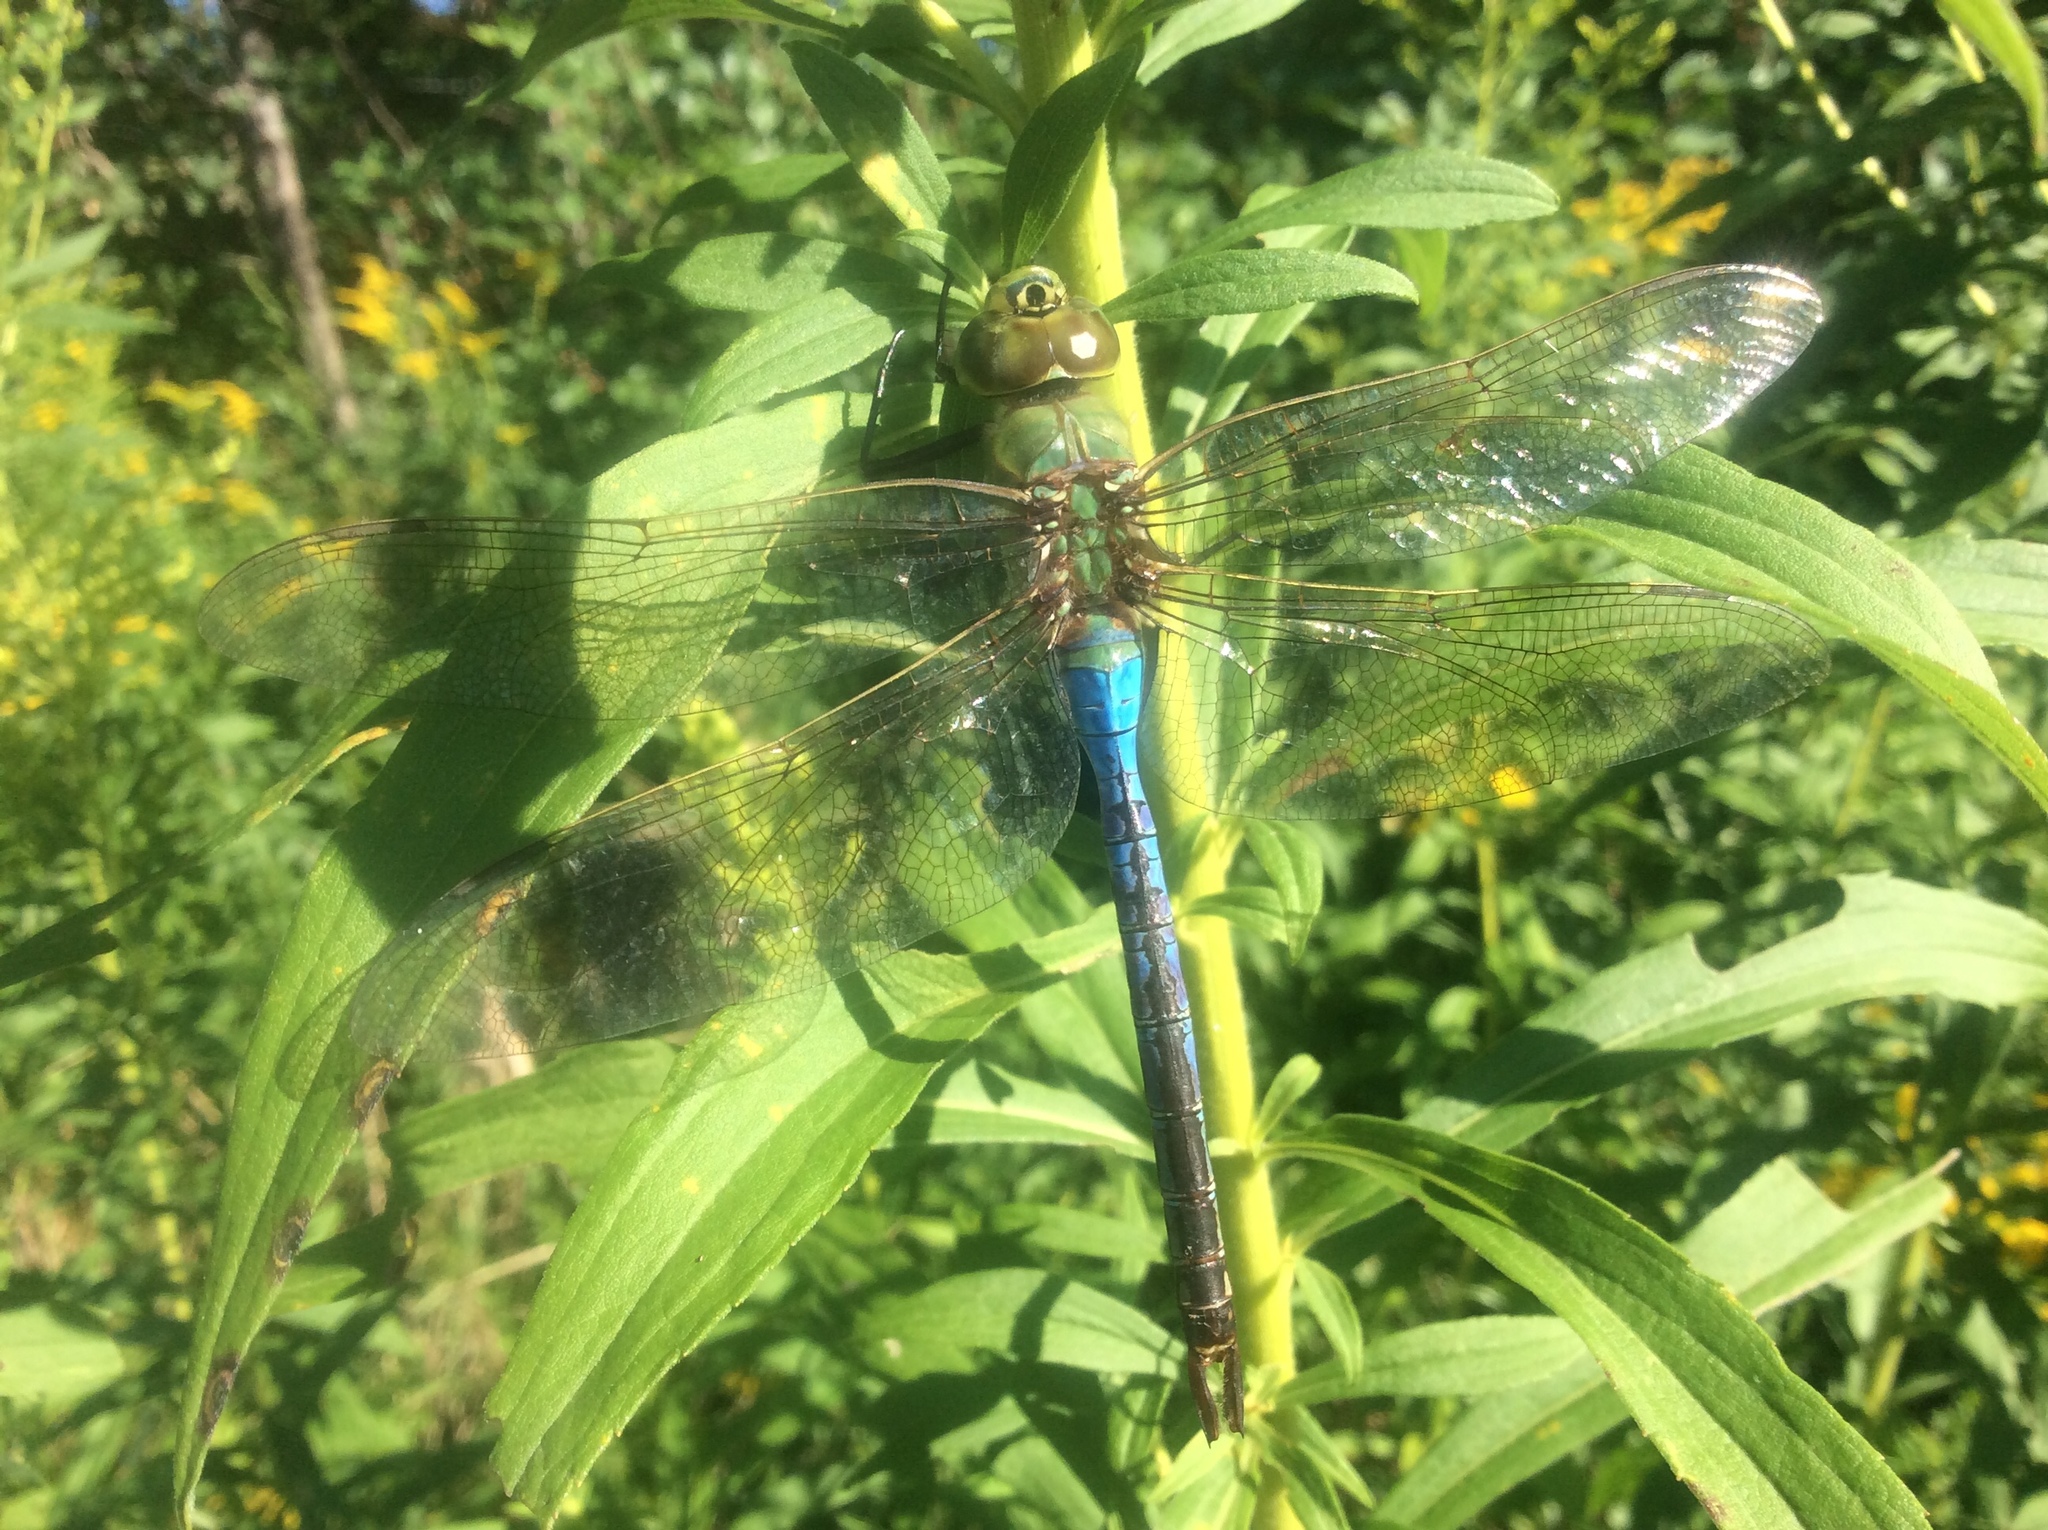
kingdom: Animalia
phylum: Arthropoda
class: Insecta
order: Odonata
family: Aeshnidae
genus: Anax
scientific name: Anax junius
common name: Common green darner
